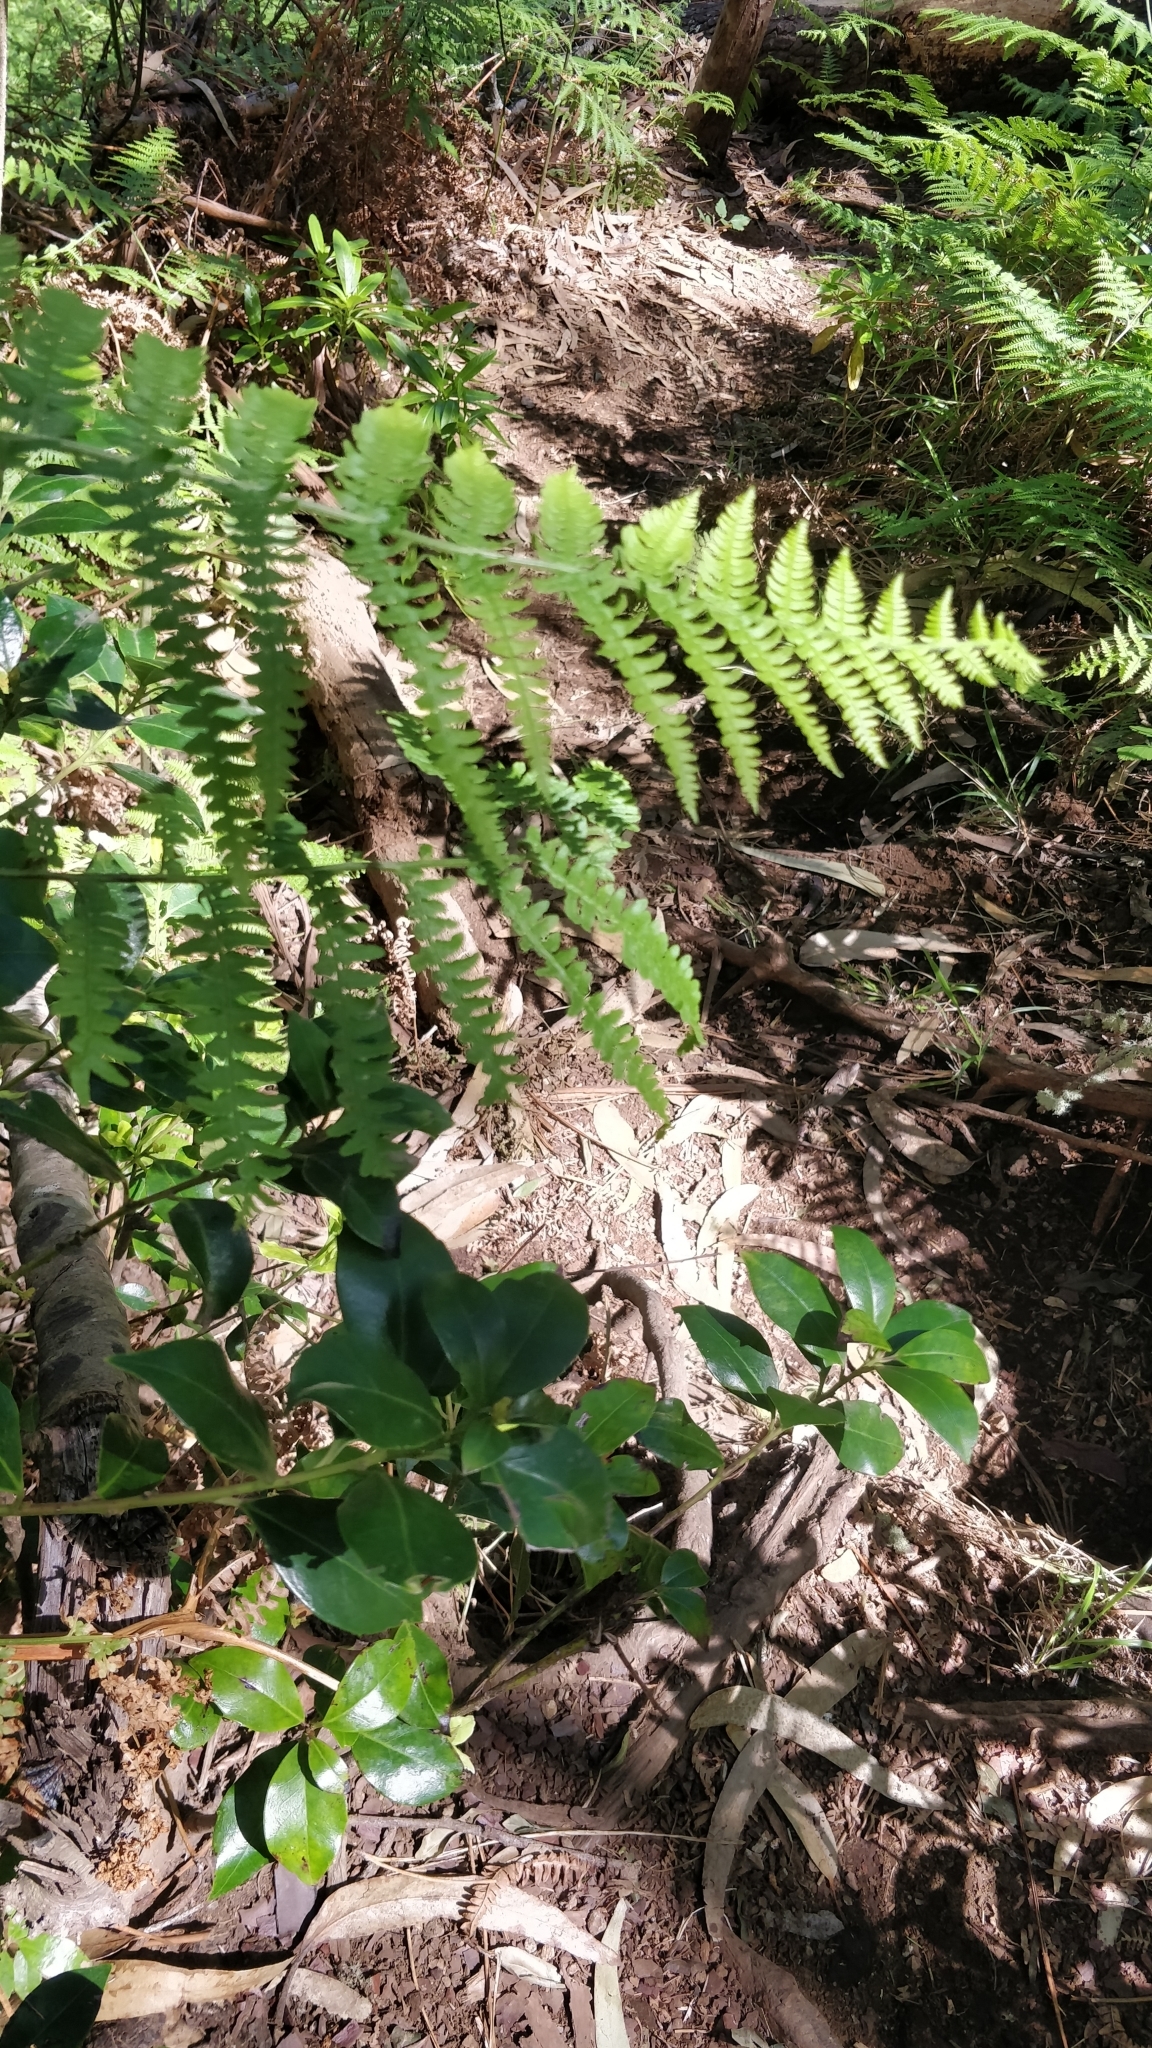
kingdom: Plantae
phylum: Tracheophyta
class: Magnoliopsida
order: Aquifoliales
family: Aquifoliaceae
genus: Ilex
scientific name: Ilex canariensis
